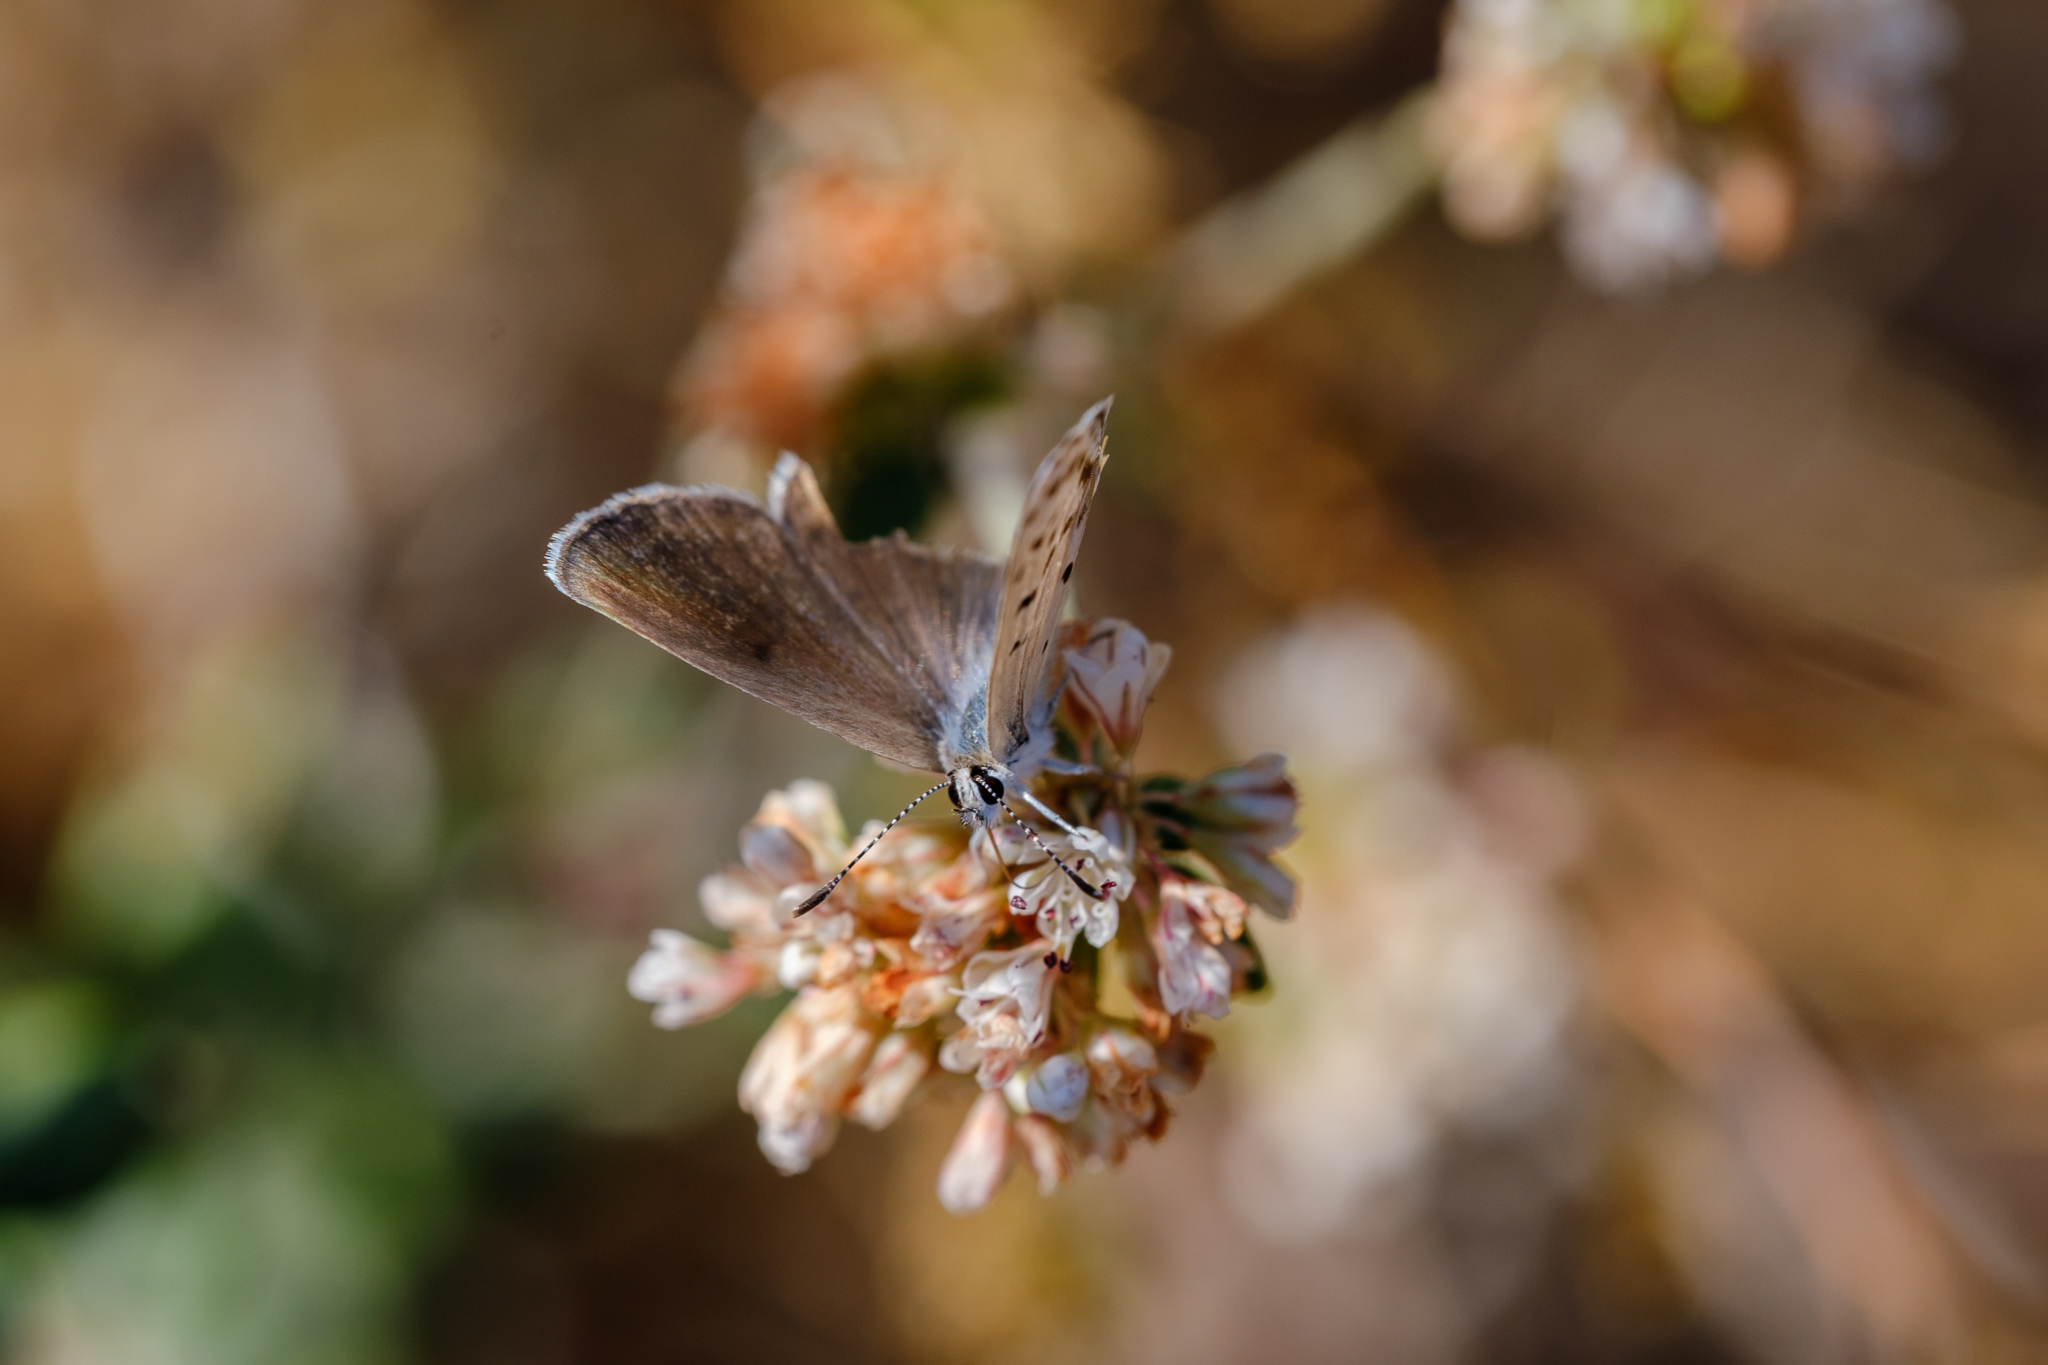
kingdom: Animalia
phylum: Arthropoda
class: Insecta
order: Lepidoptera
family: Lycaenidae
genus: Icaricia
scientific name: Icaricia acmon
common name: Acmon blue
